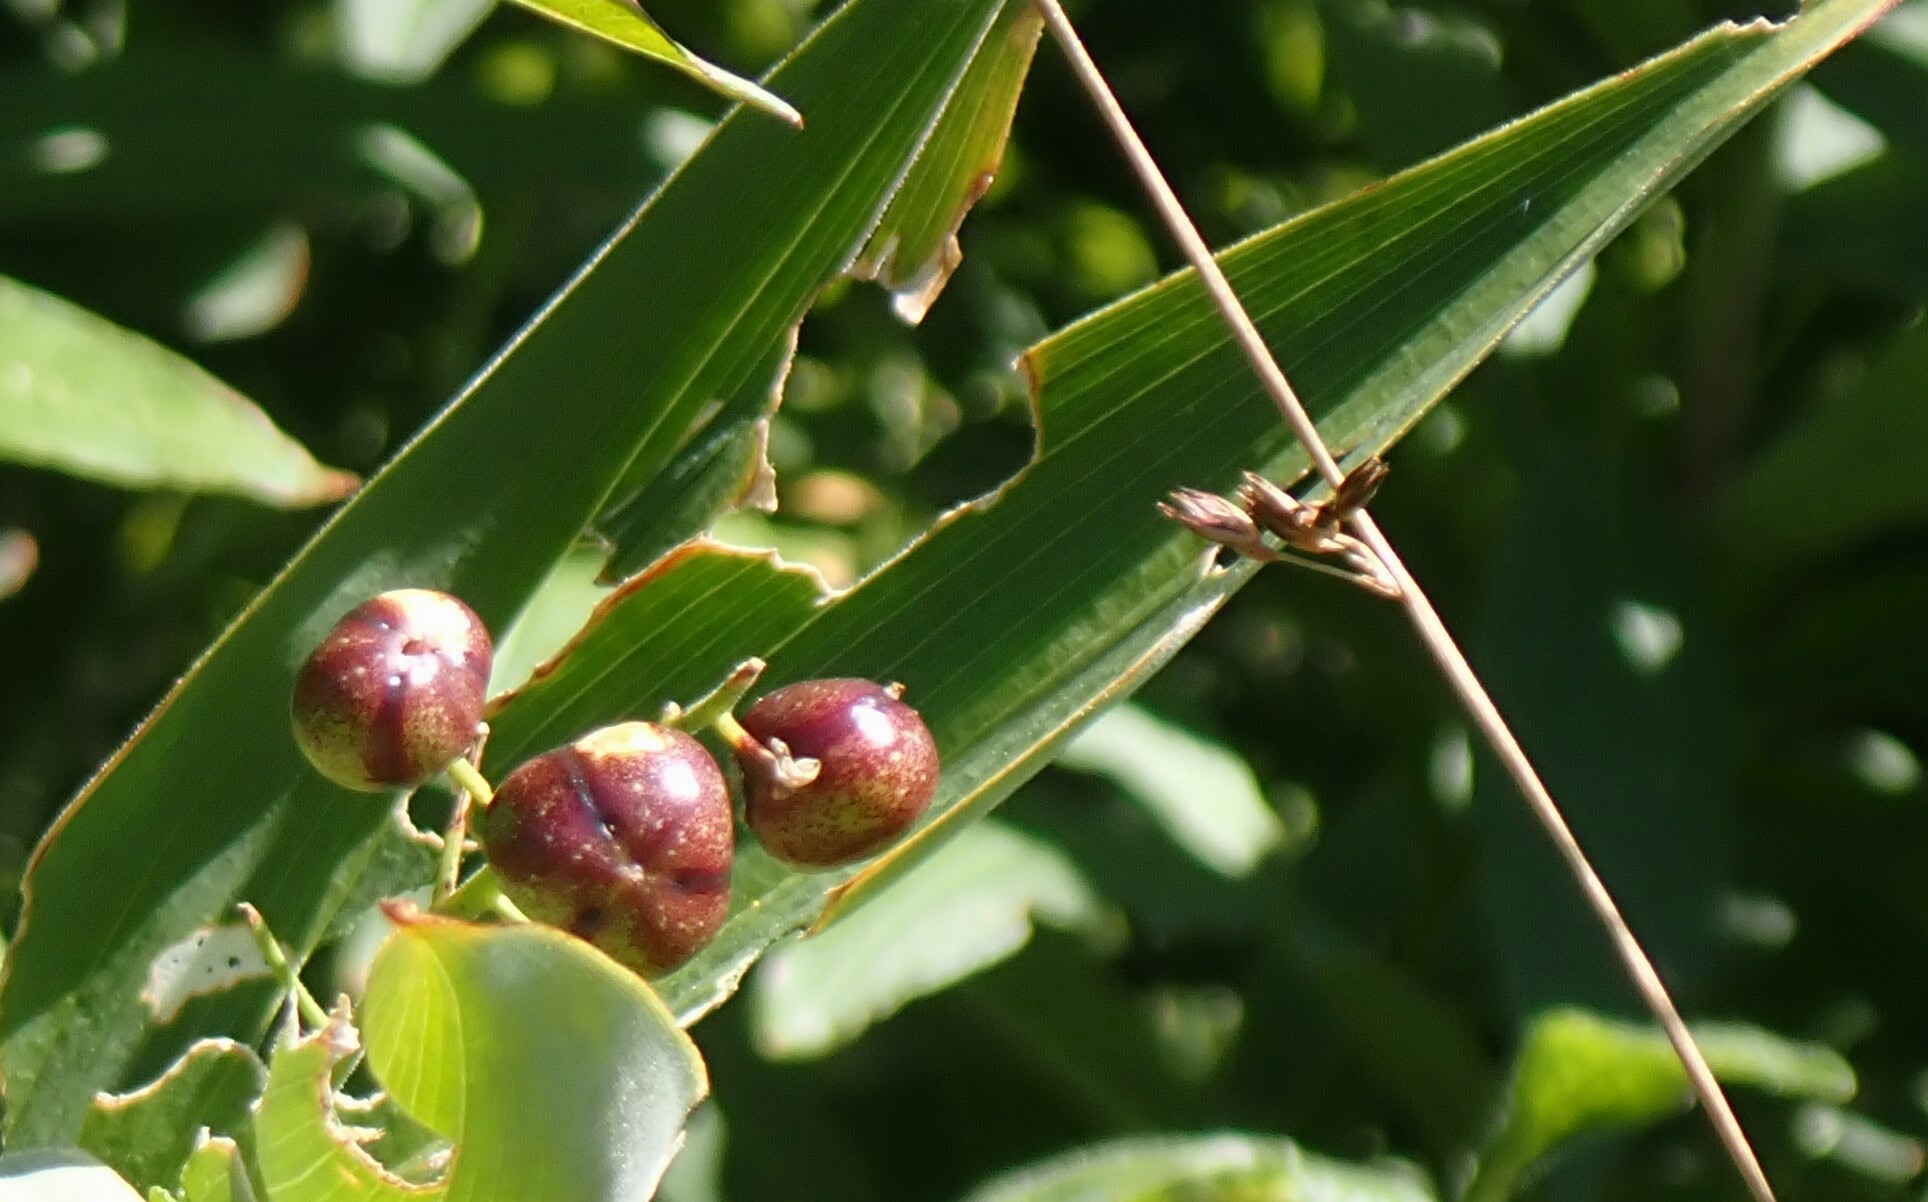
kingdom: Plantae
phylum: Tracheophyta
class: Liliopsida
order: Asparagales
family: Asparagaceae
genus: Maianthemum
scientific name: Maianthemum stellatum
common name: Little false solomon's seal
